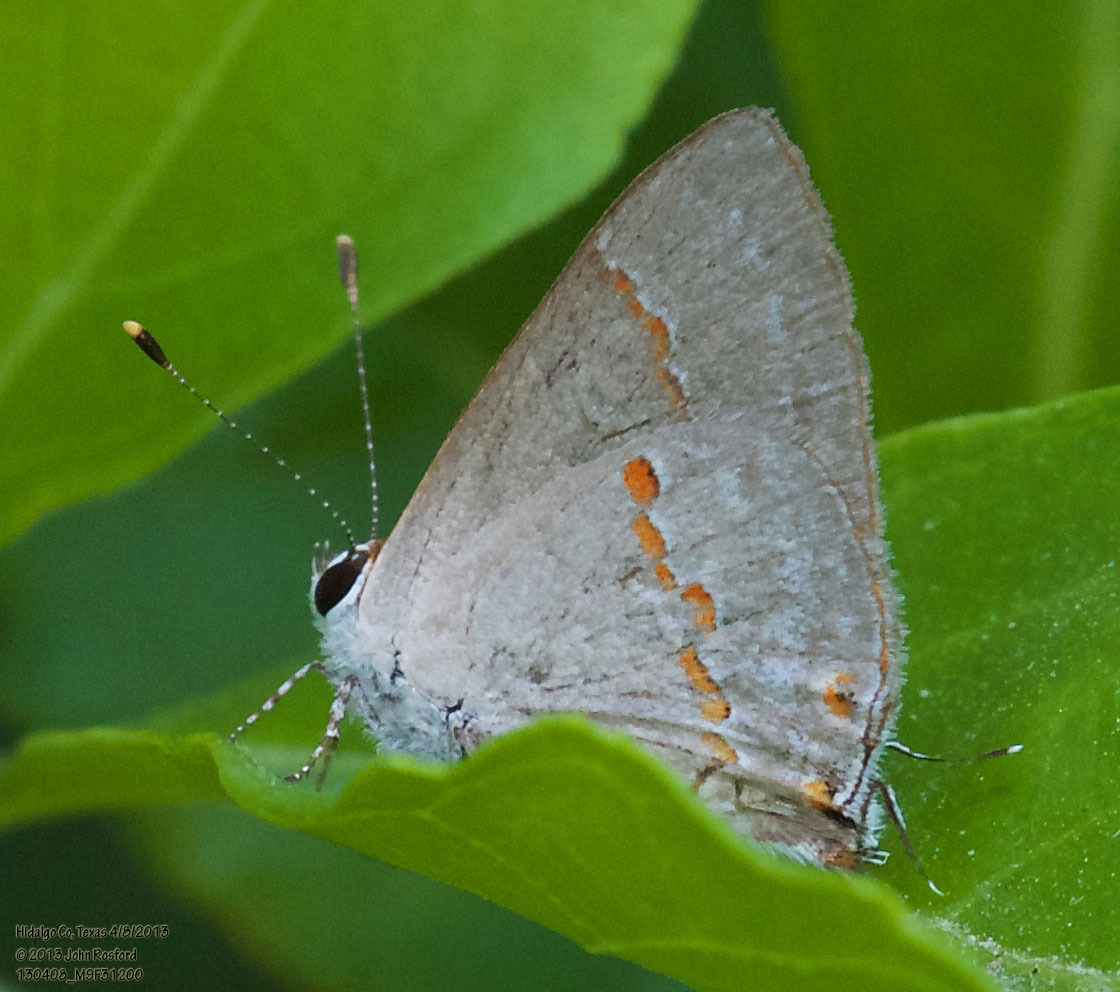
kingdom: Animalia
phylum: Arthropoda
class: Insecta
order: Lepidoptera
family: Lycaenidae
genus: Thecla
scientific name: Thecla azia
